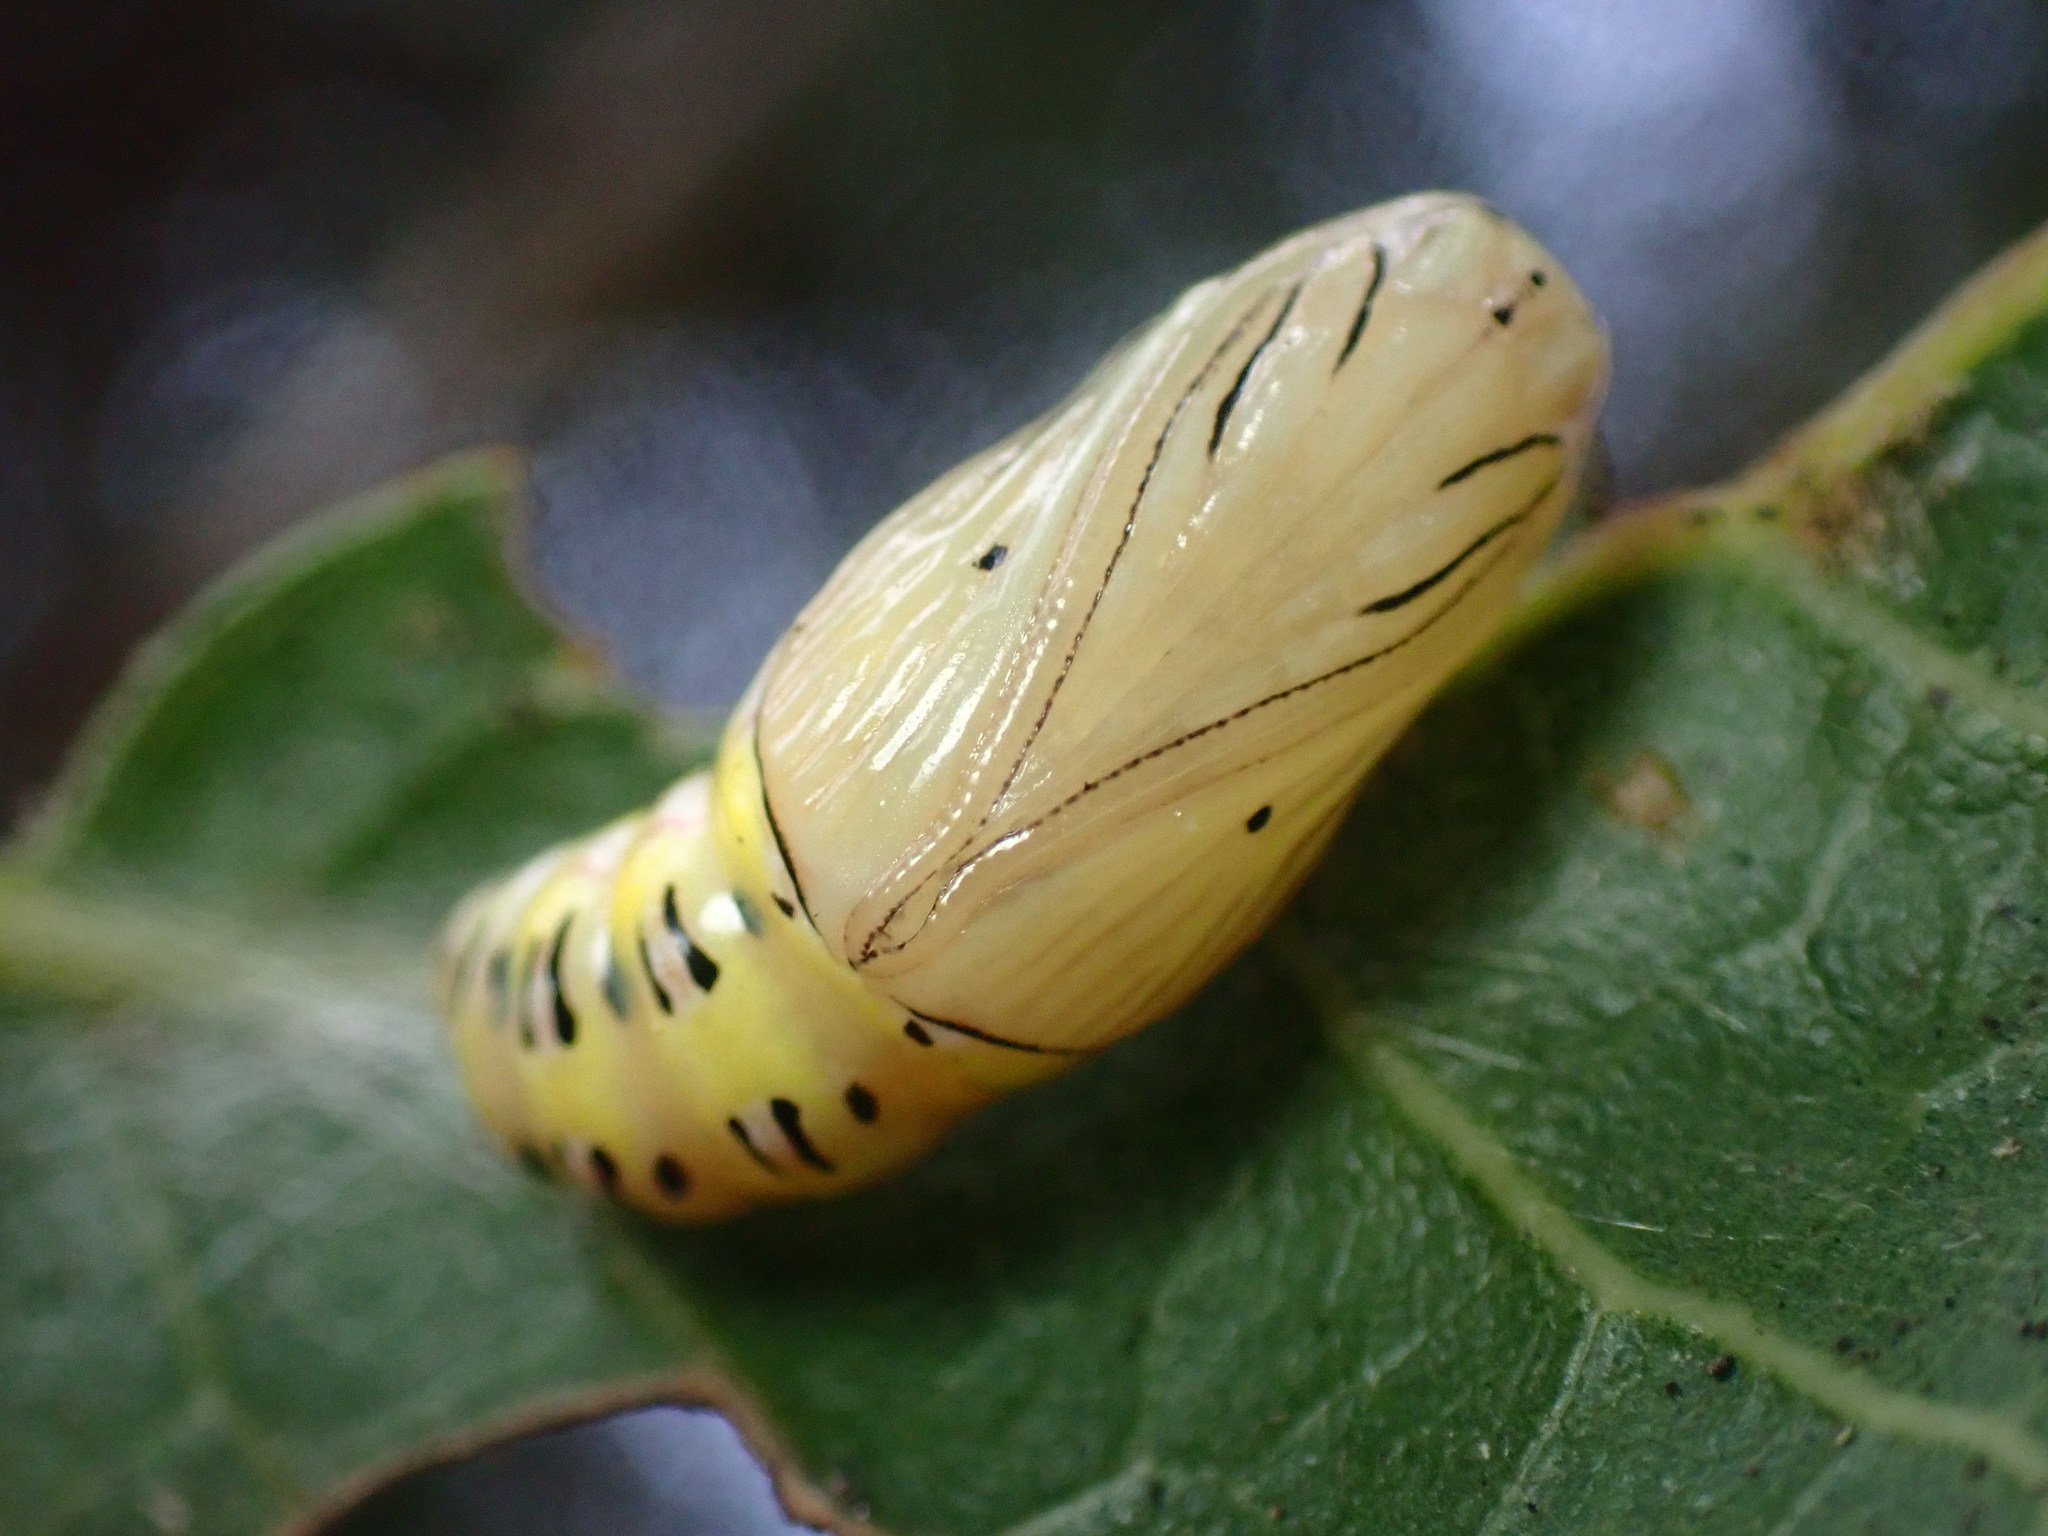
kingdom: Animalia
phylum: Arthropoda
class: Insecta
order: Lepidoptera
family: Notodontidae
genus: Phryganidia
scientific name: Phryganidia californica
